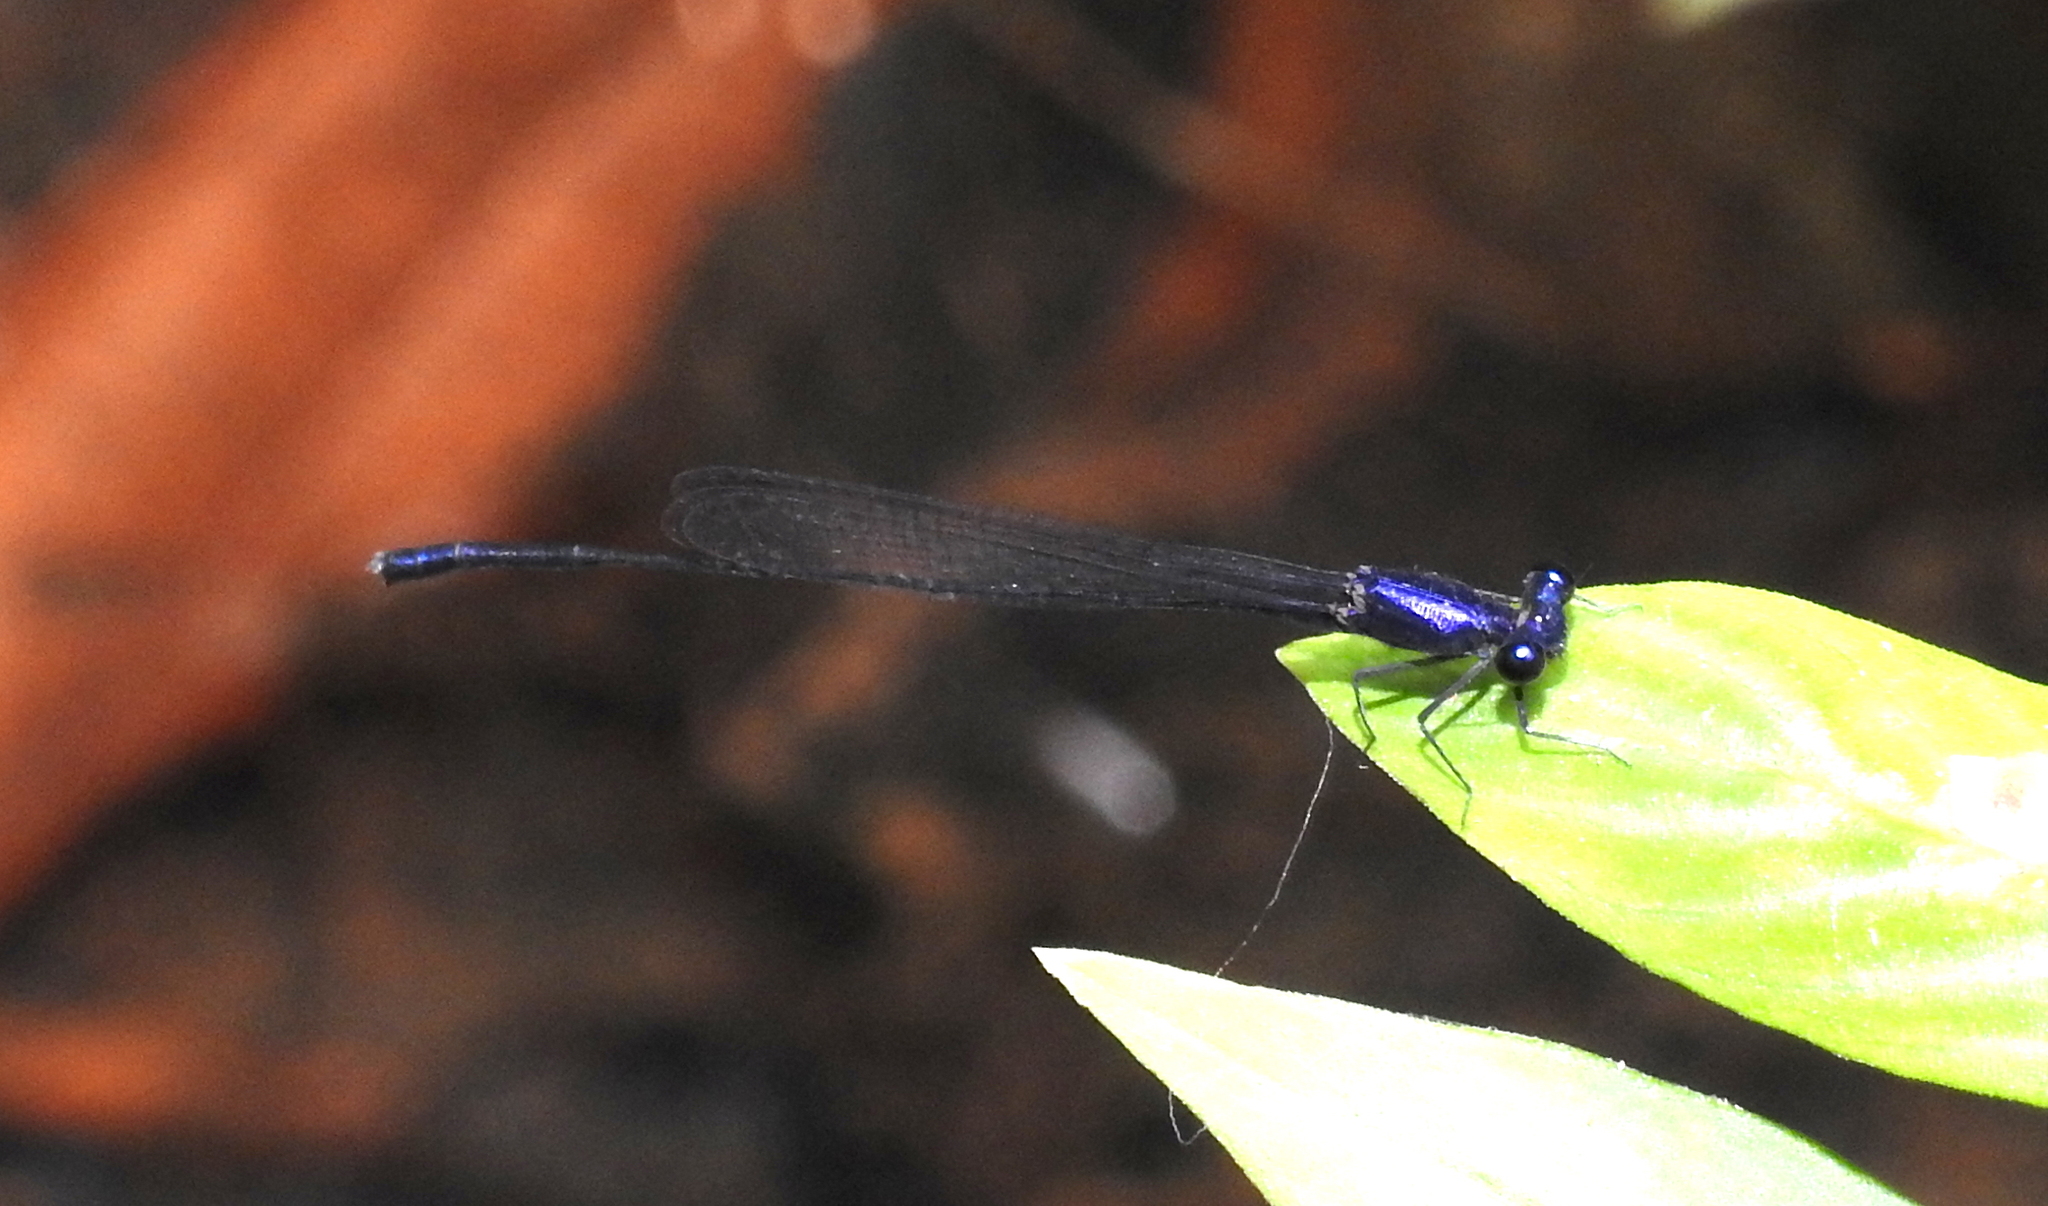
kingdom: Animalia
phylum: Arthropoda
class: Insecta
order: Odonata
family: Platycnemididae
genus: Elattoneura
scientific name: Elattoneura centralis
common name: Dark-glittering threadtail
